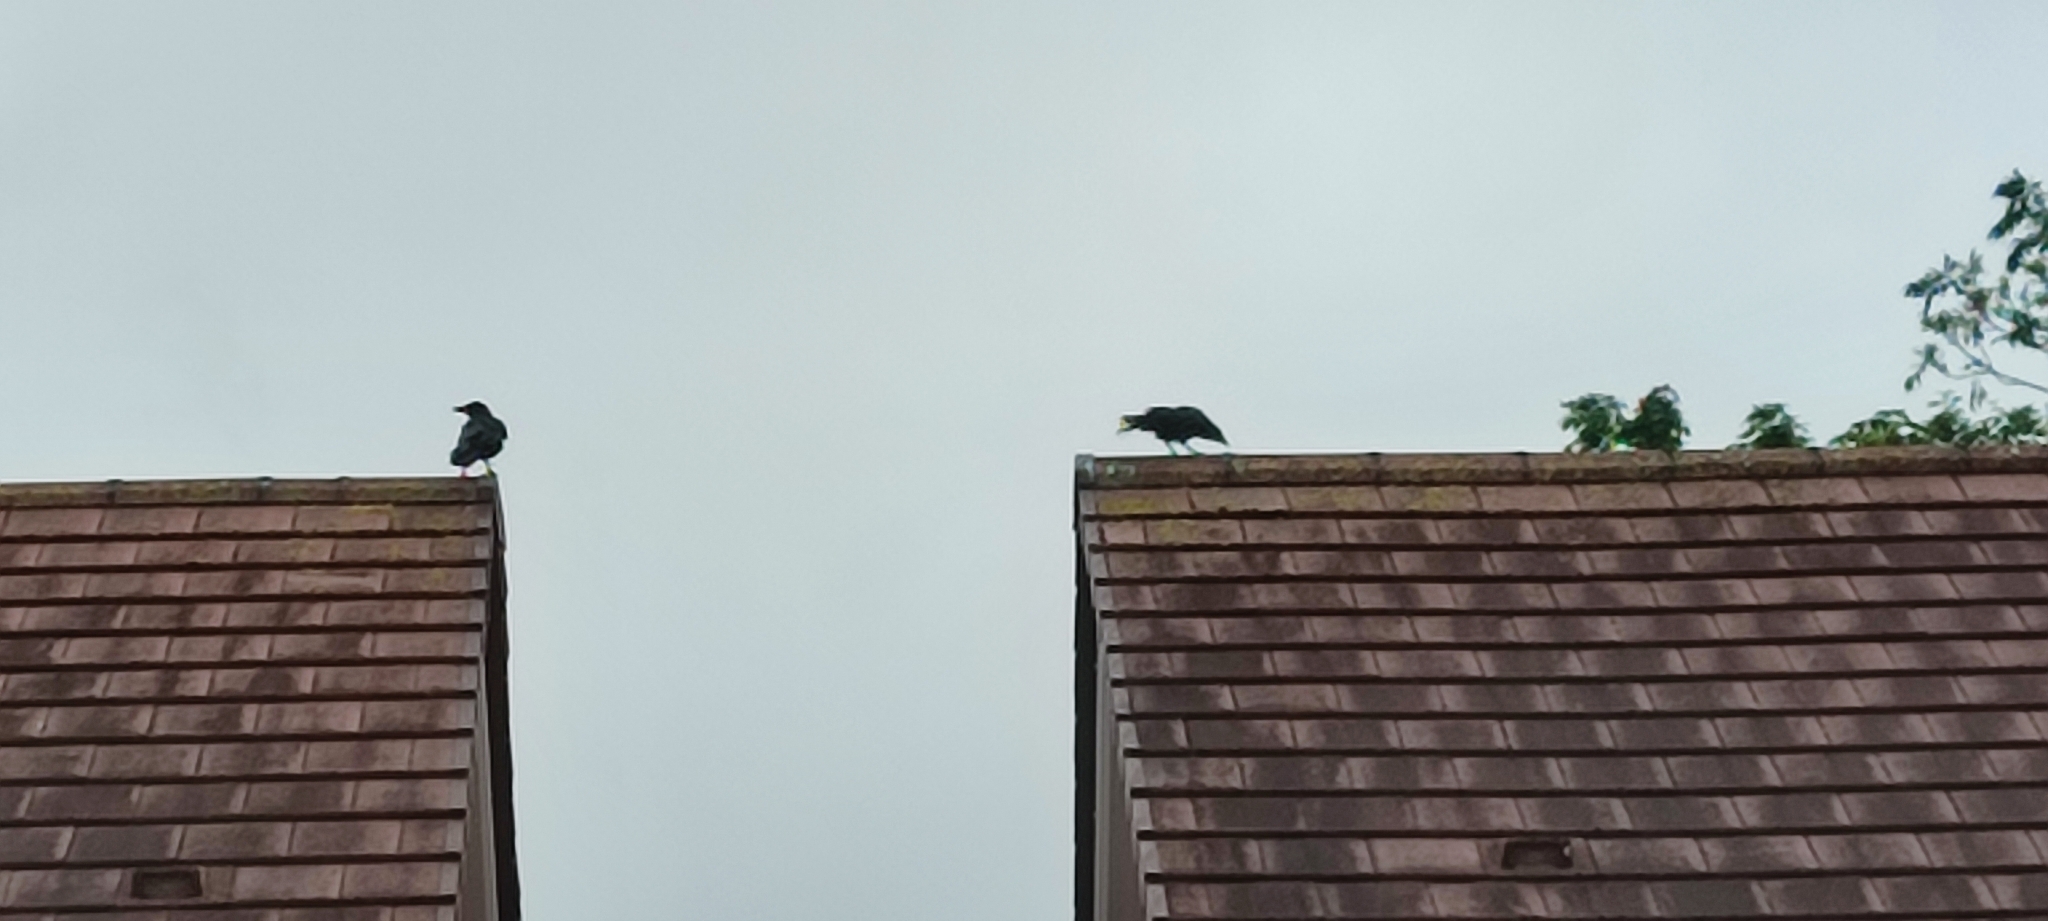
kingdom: Animalia
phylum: Chordata
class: Aves
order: Passeriformes
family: Corvidae
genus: Corvus
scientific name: Corvus corone
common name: Carrion crow
